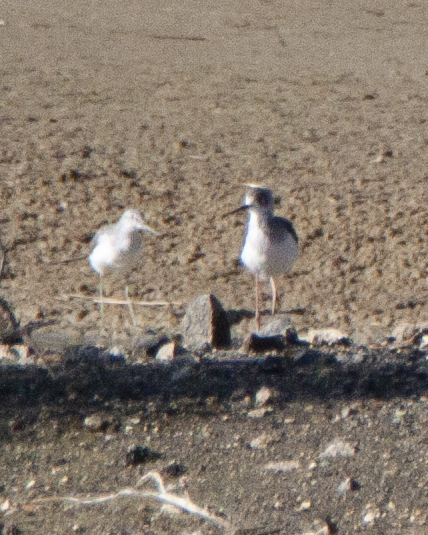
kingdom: Animalia
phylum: Chordata
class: Aves
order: Charadriiformes
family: Recurvirostridae
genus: Himantopus
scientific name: Himantopus himantopus
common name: Black-winged stilt
